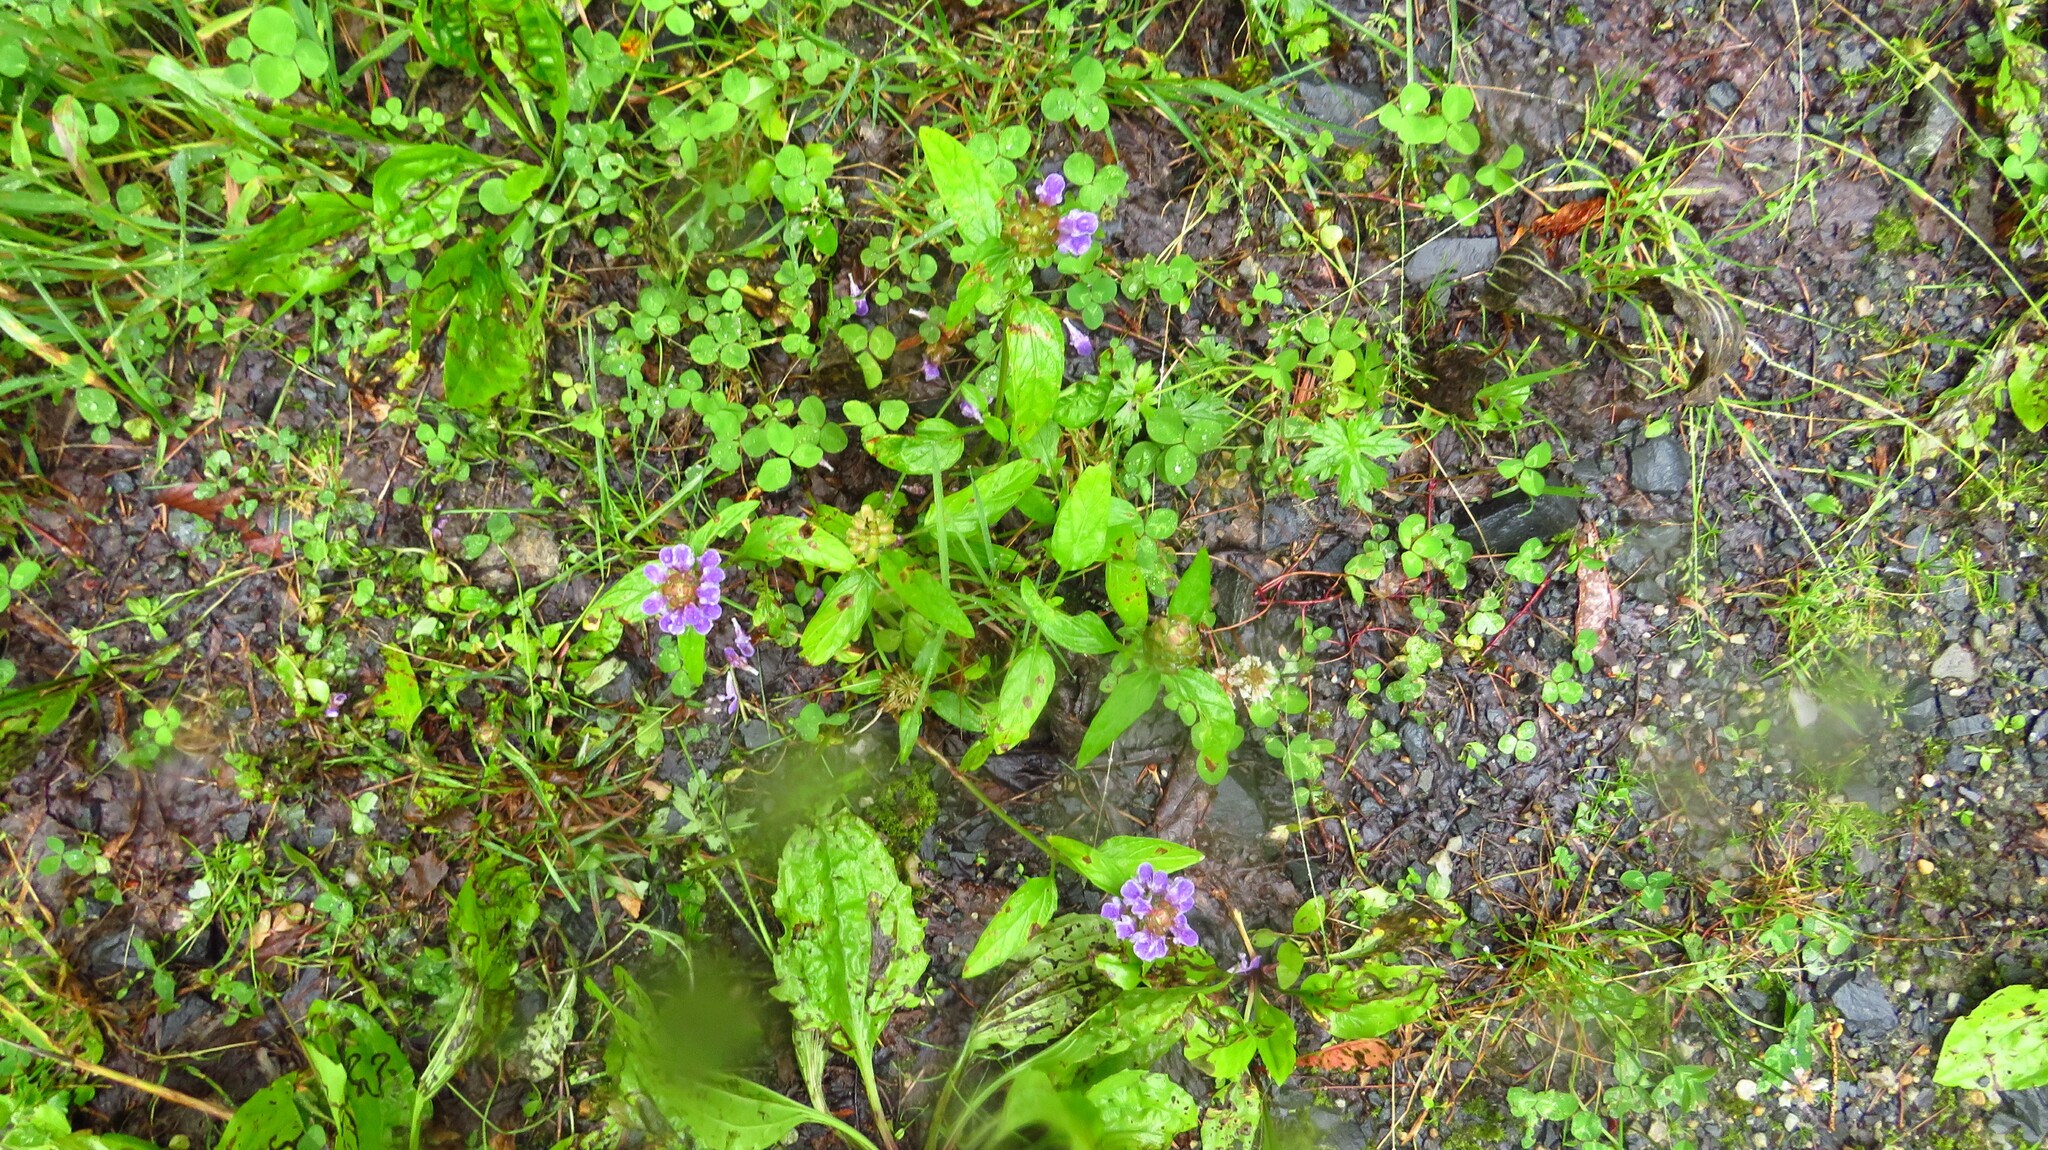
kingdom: Plantae
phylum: Tracheophyta
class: Magnoliopsida
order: Lamiales
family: Lamiaceae
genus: Prunella
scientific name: Prunella vulgaris
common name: Heal-all
